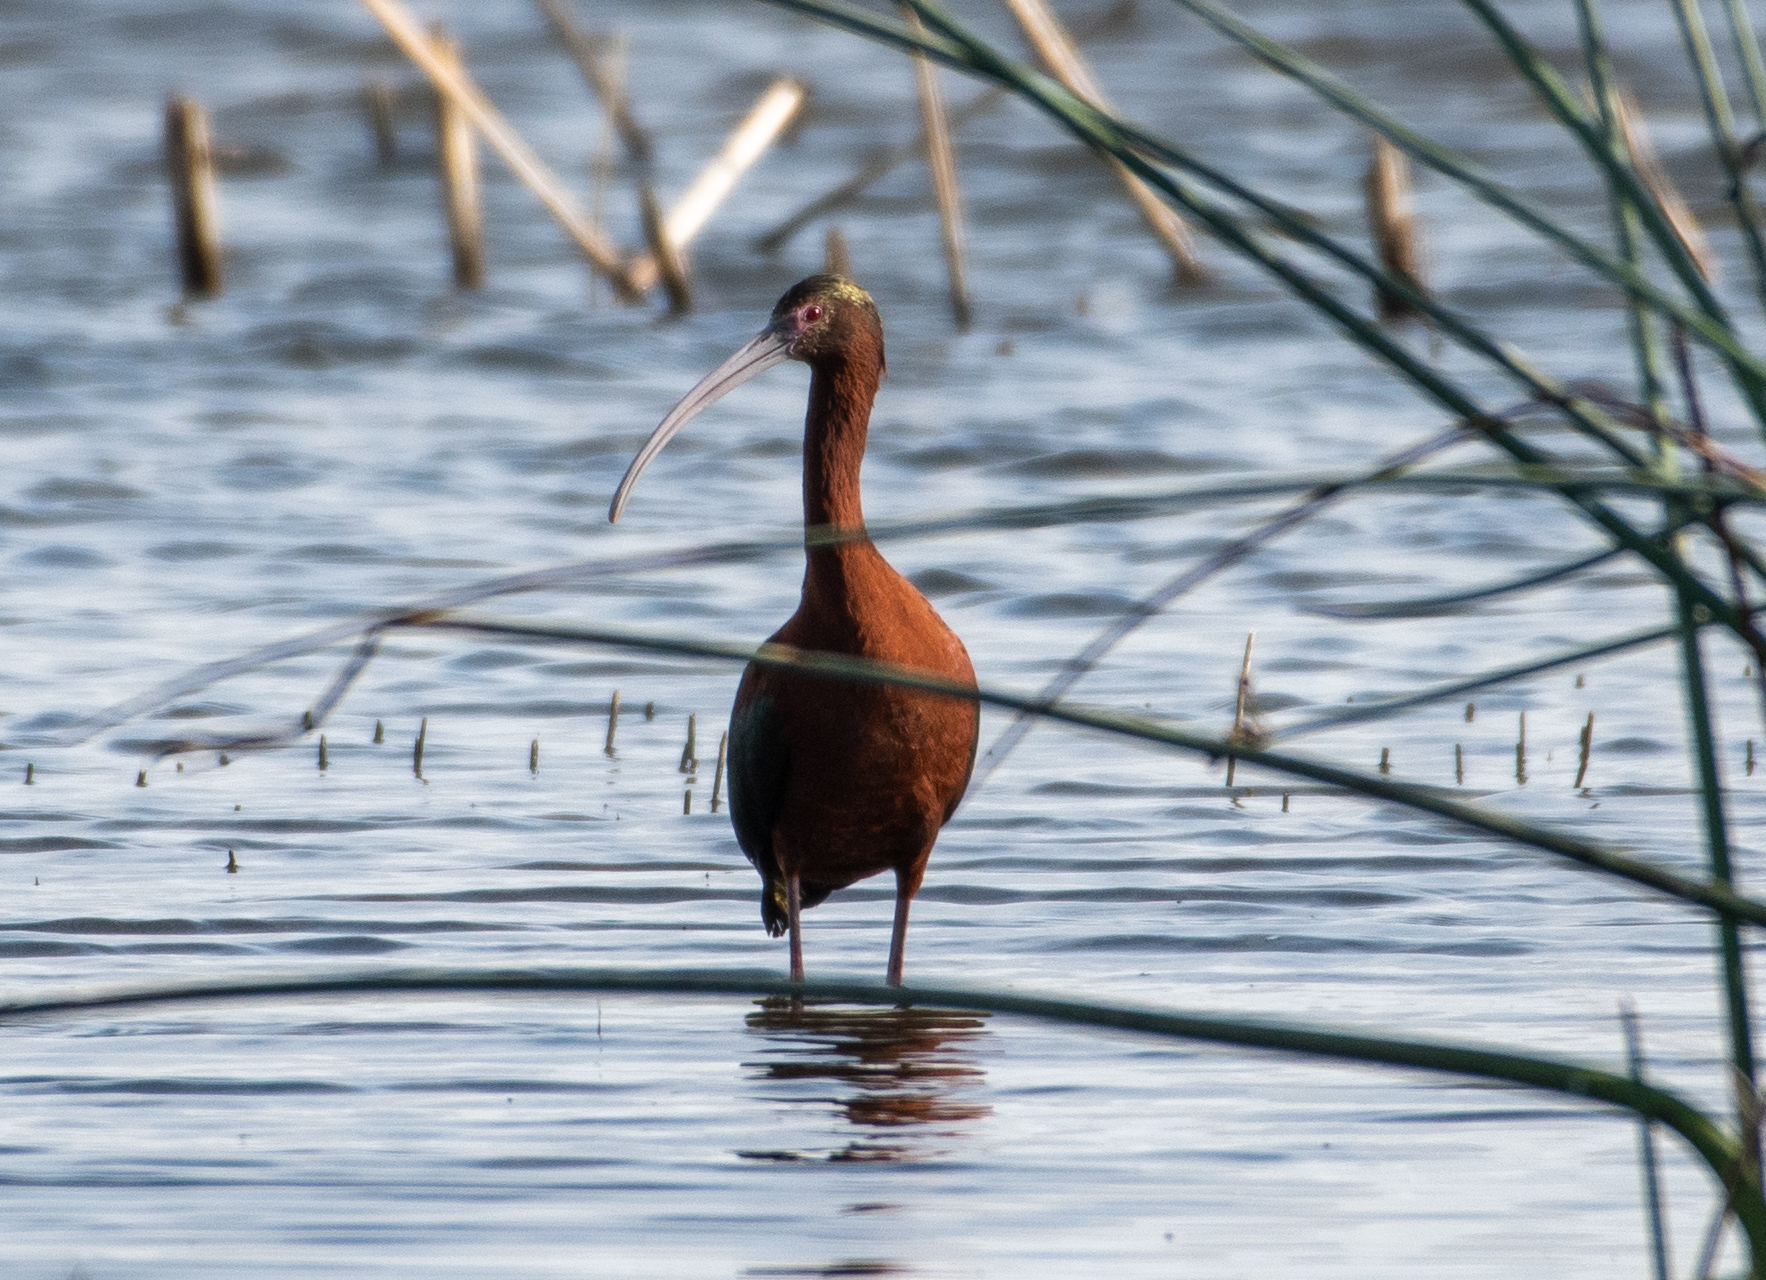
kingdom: Animalia
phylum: Chordata
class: Aves
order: Pelecaniformes
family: Threskiornithidae
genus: Plegadis
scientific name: Plegadis chihi
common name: White-faced ibis
